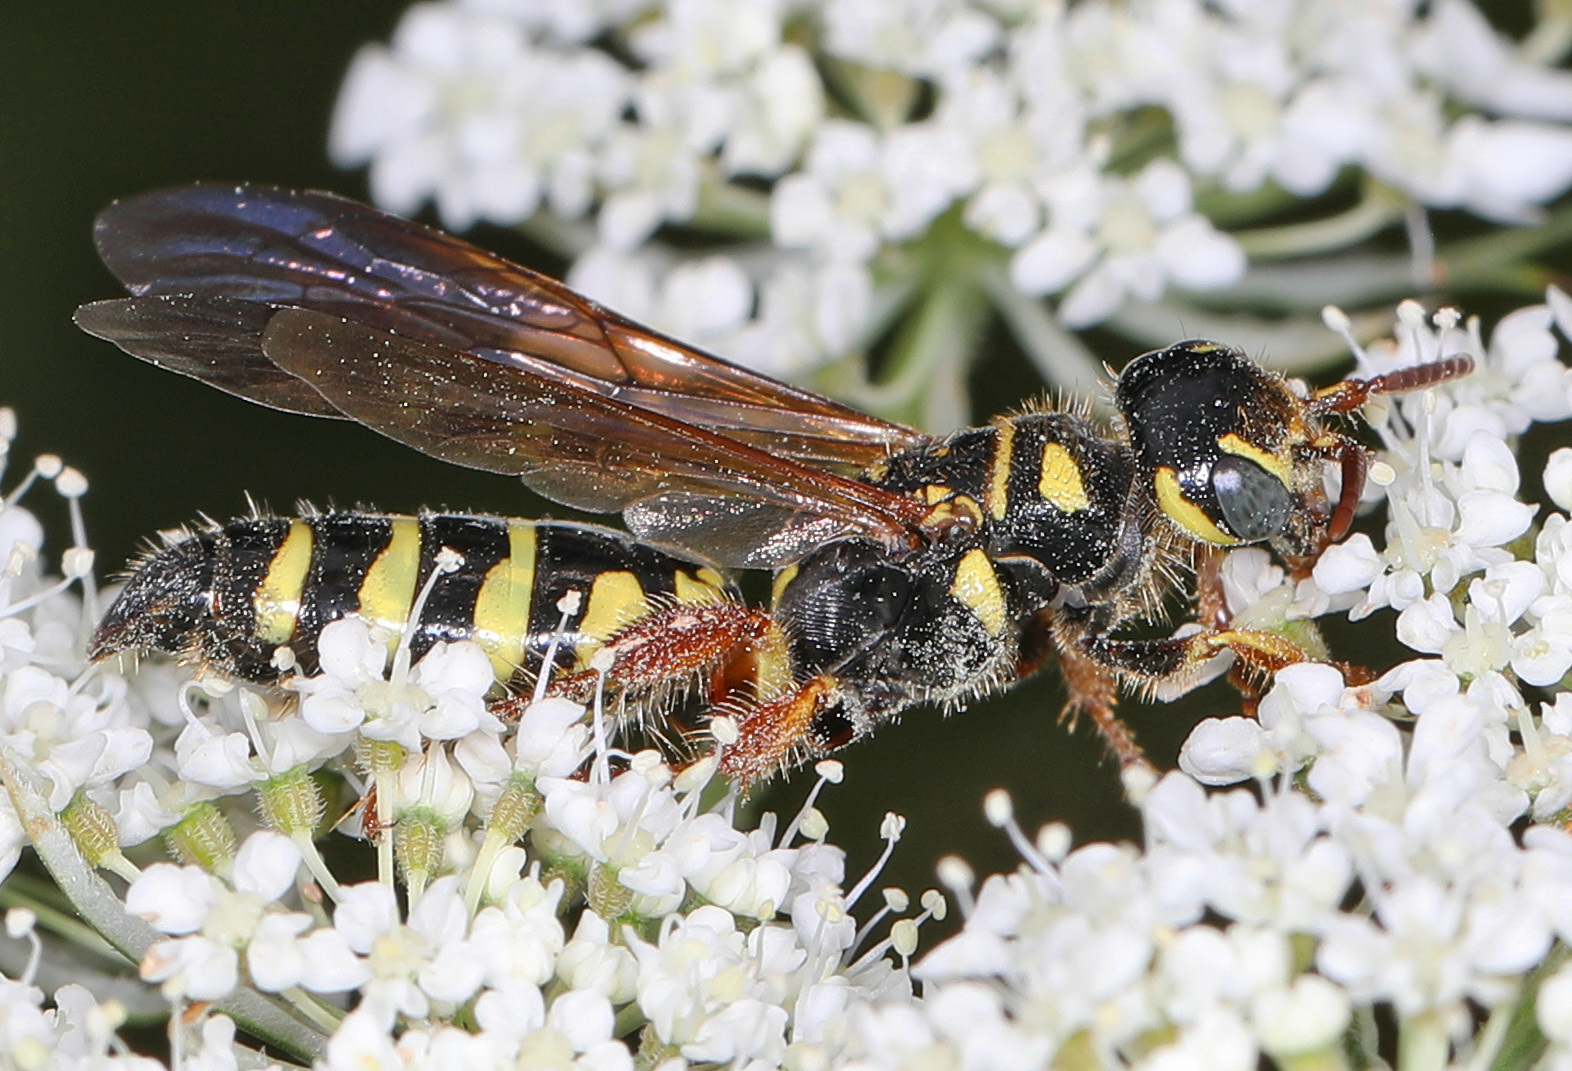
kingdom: Animalia
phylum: Arthropoda
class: Insecta
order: Hymenoptera
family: Tiphiidae
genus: Myzinum
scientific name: Myzinum quinquecinctum
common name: Five-banded thynnid wasp
